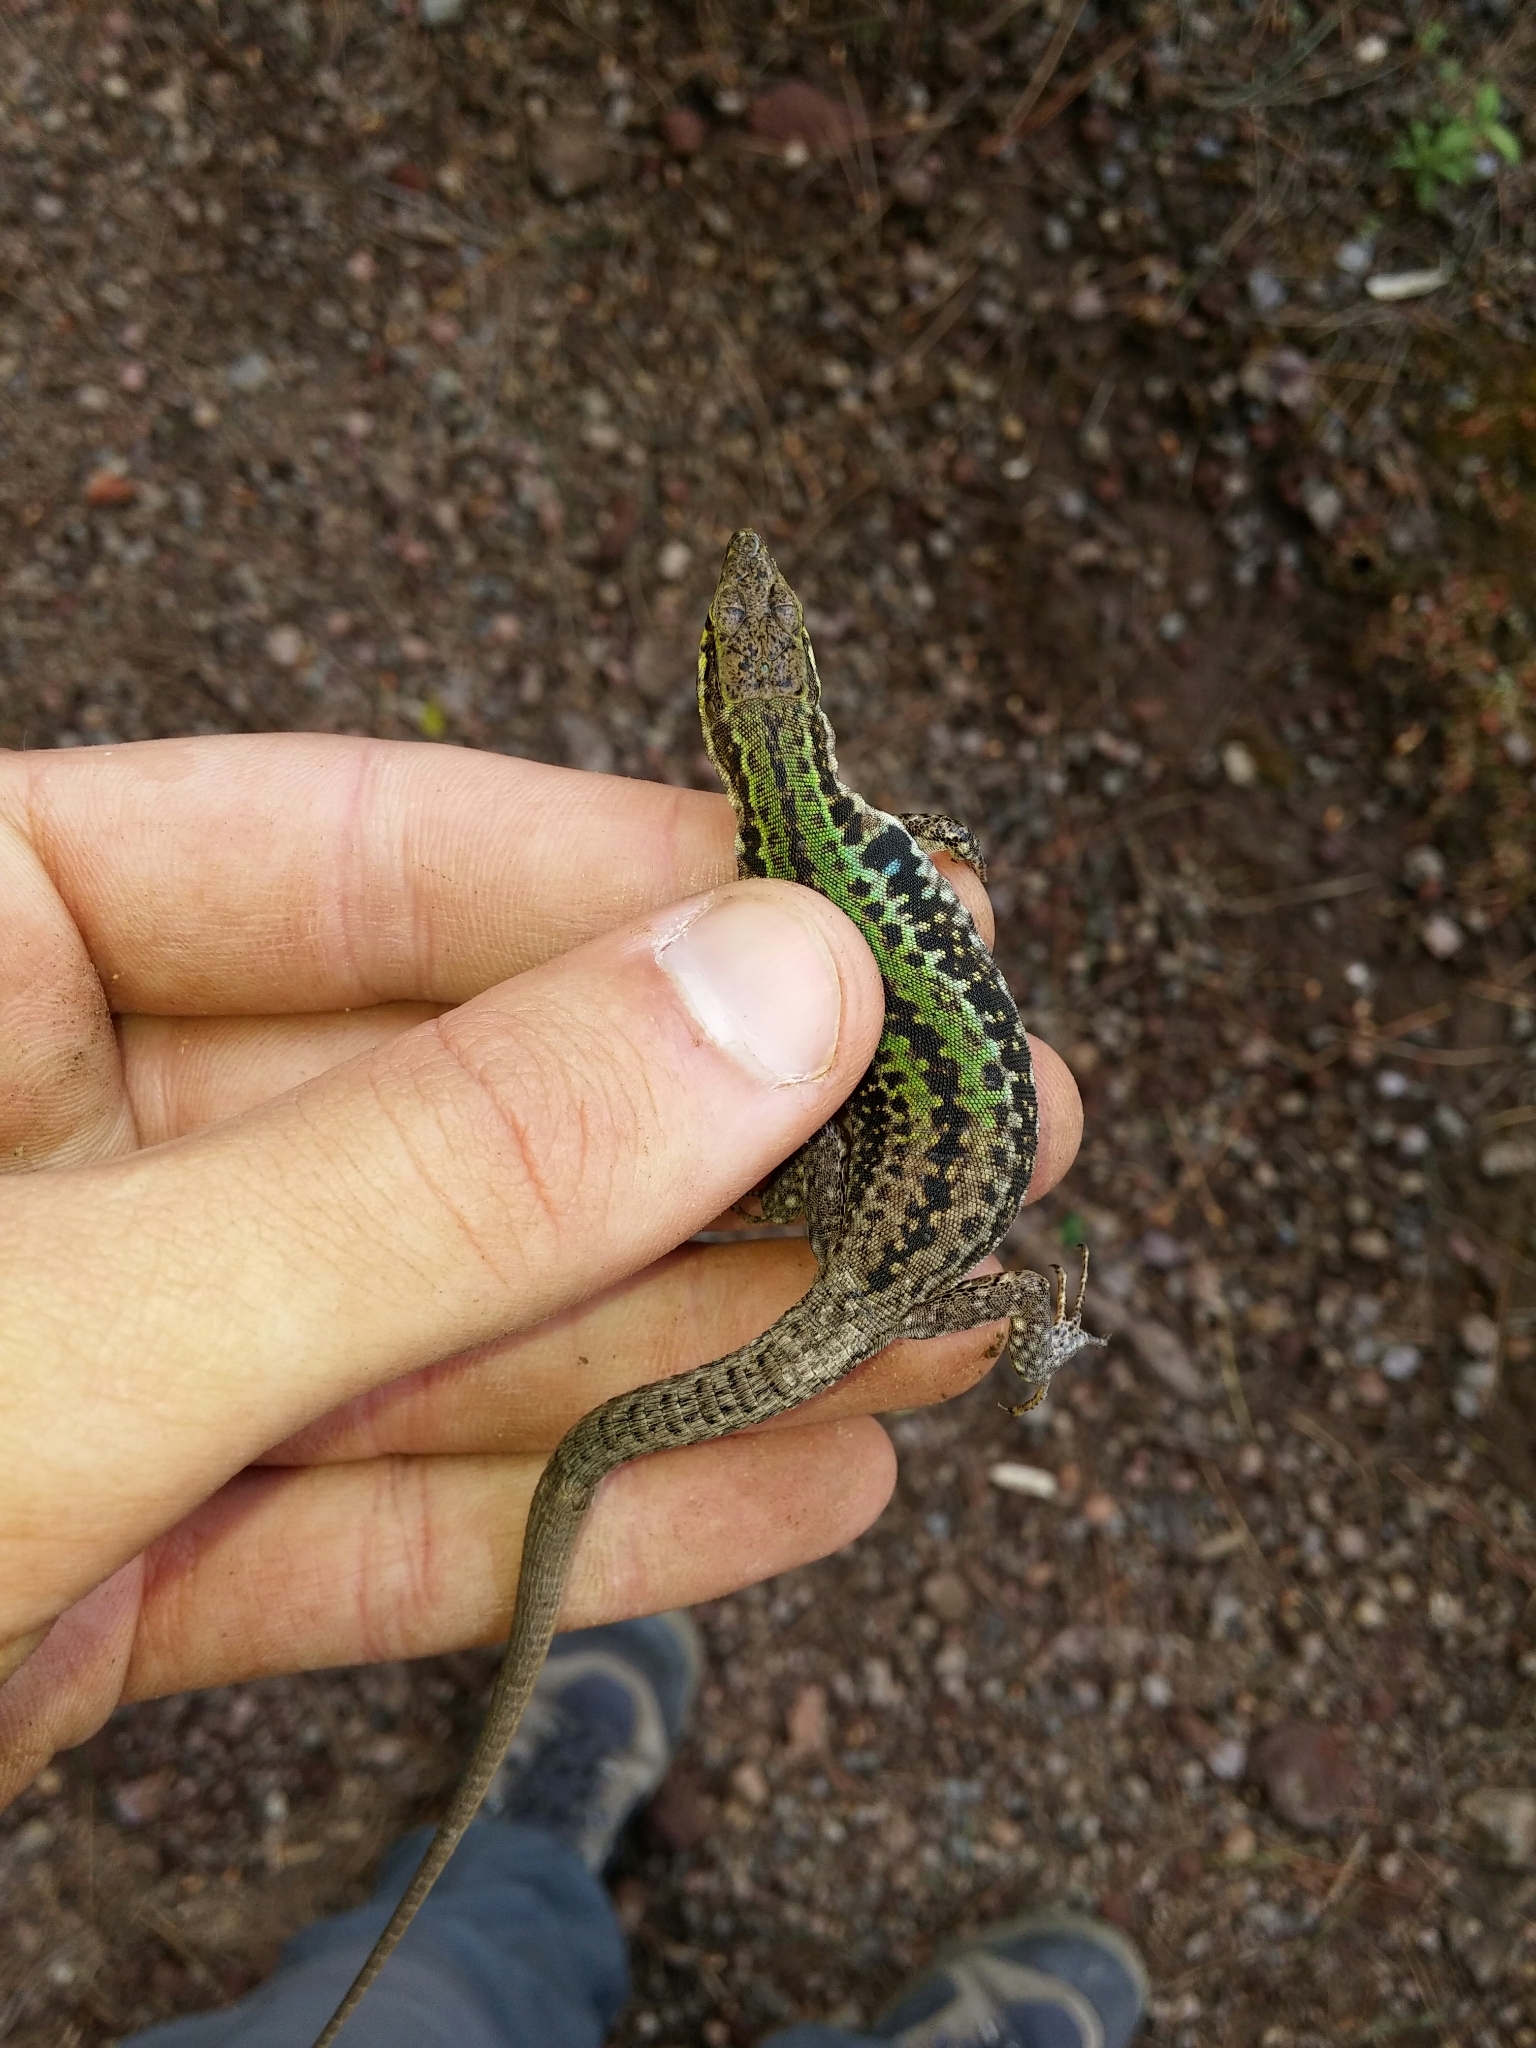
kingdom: Animalia
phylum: Chordata
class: Squamata
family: Lacertidae
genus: Podarcis
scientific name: Podarcis siculus
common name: Italian wall lizard
